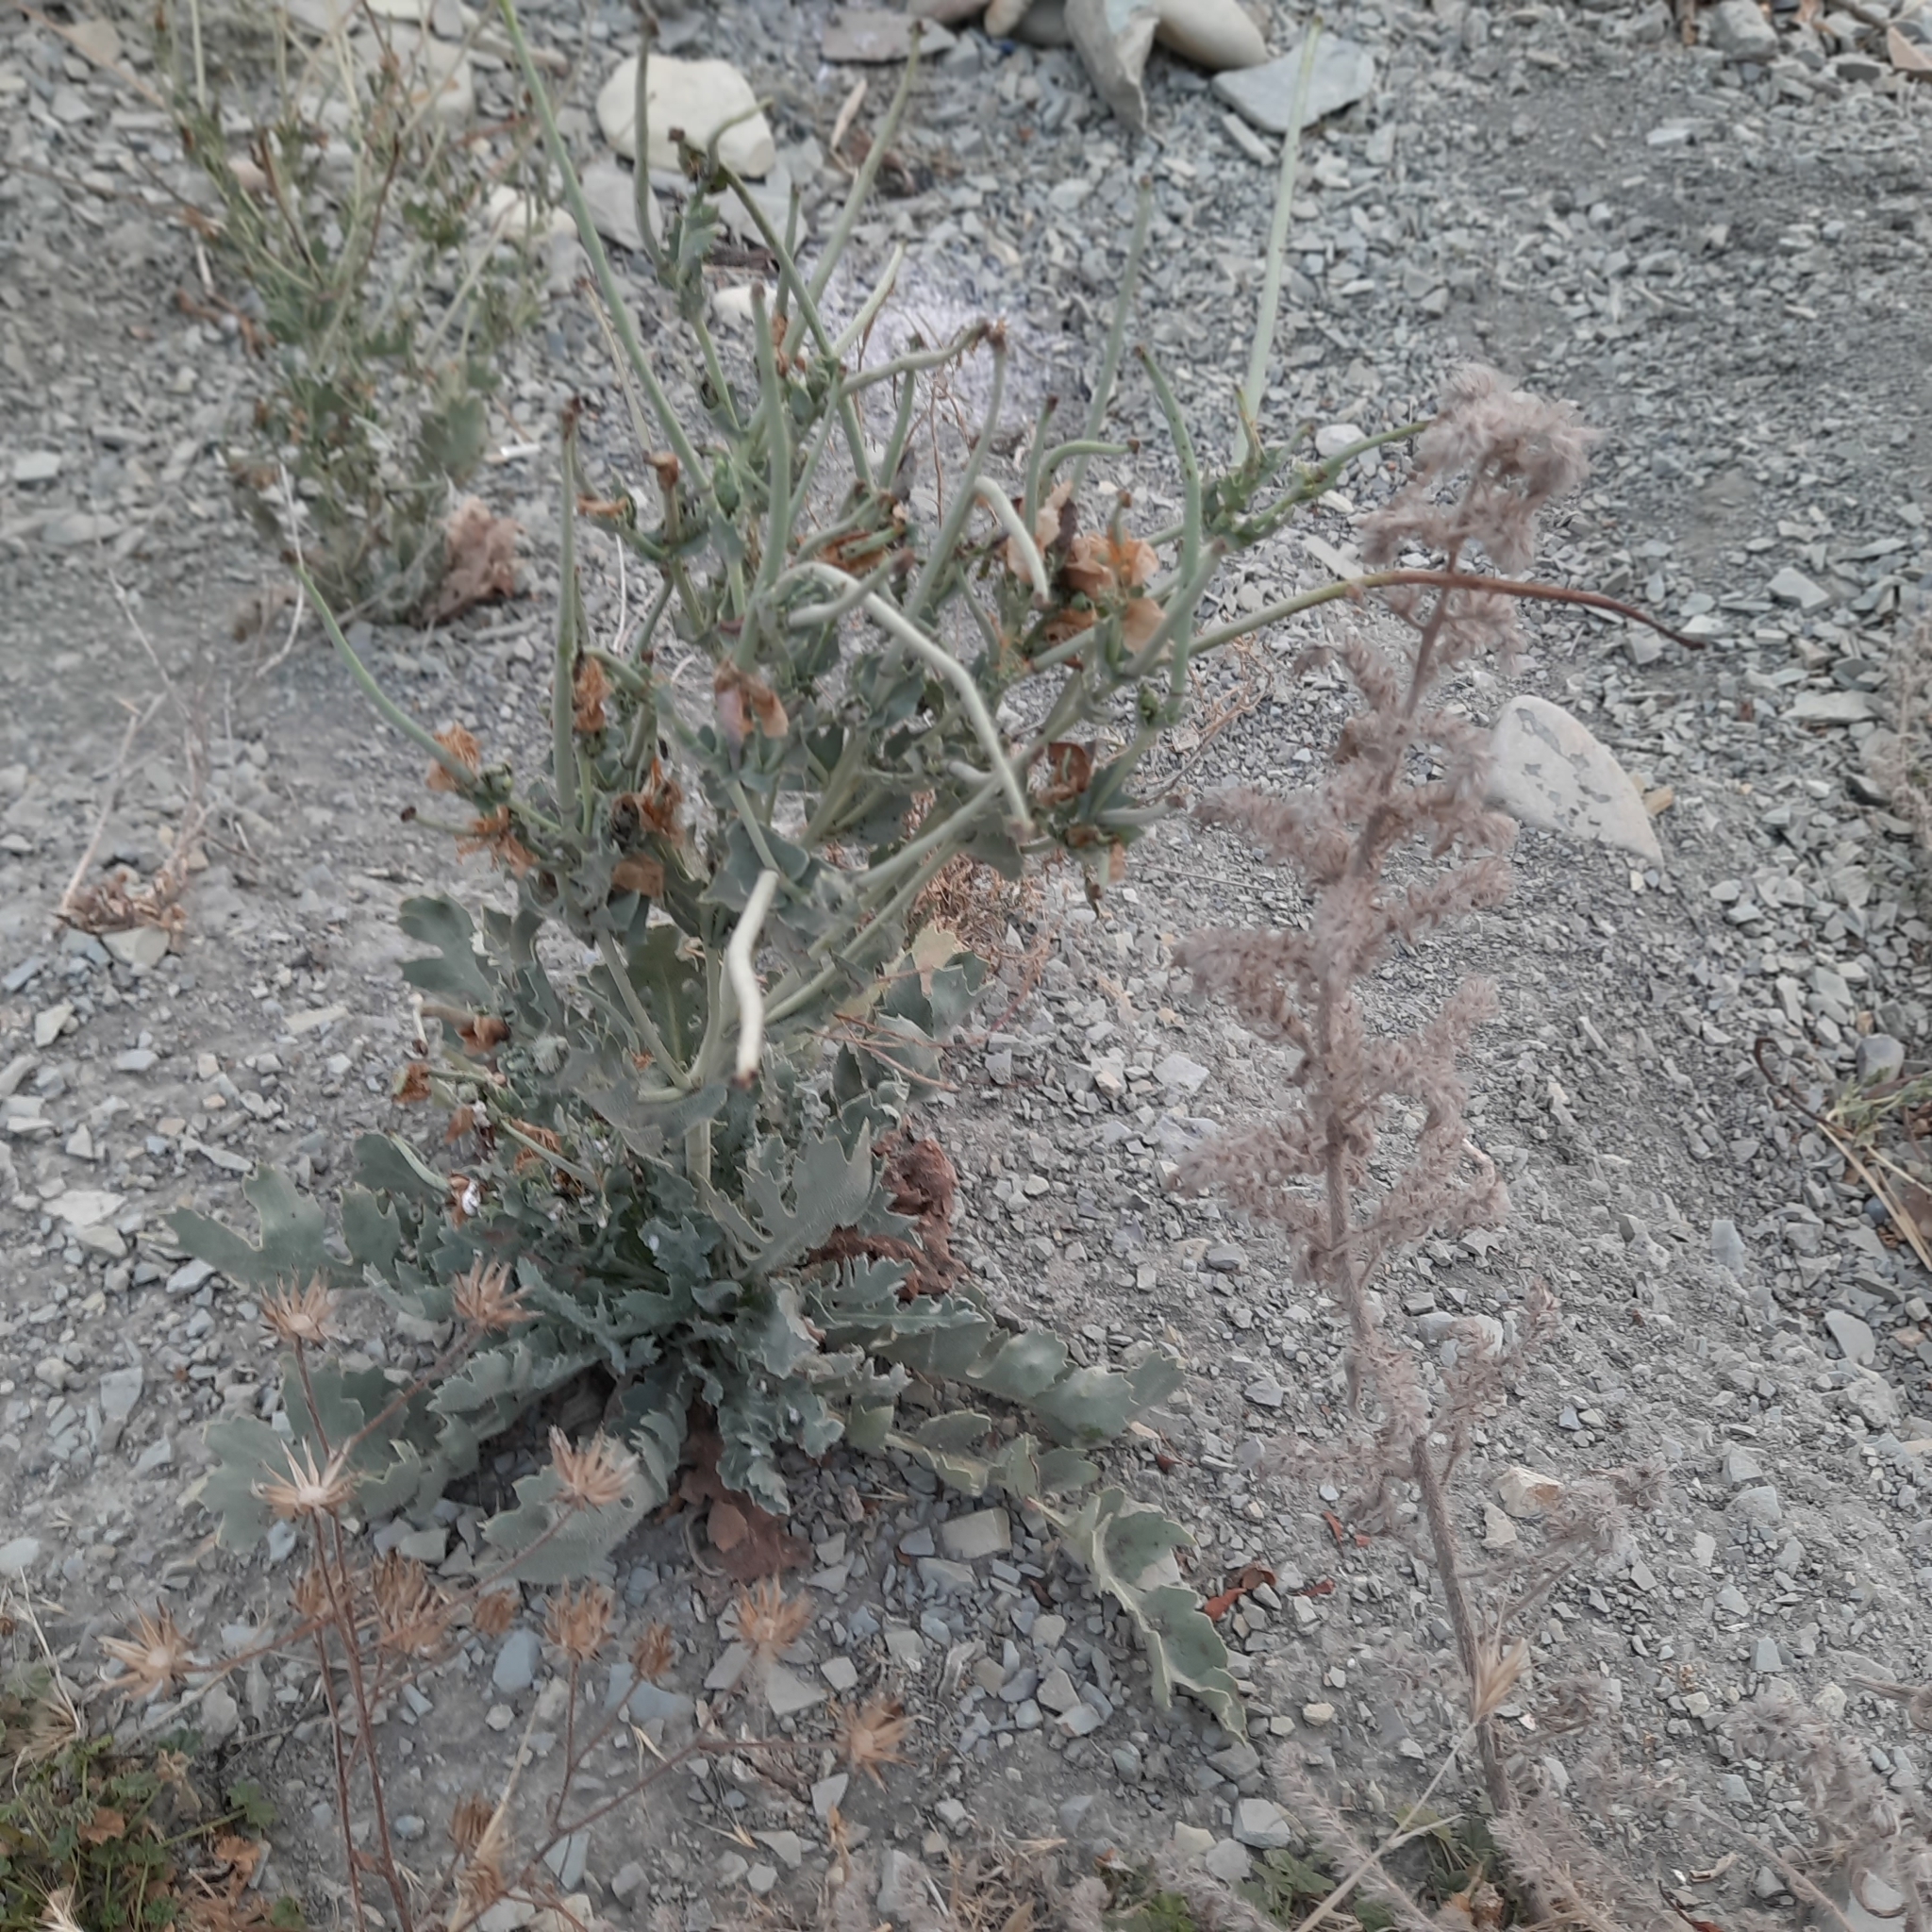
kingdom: Plantae
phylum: Tracheophyta
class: Magnoliopsida
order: Ranunculales
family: Papaveraceae
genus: Glaucium
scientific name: Glaucium flavum
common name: Yellow horned-poppy
